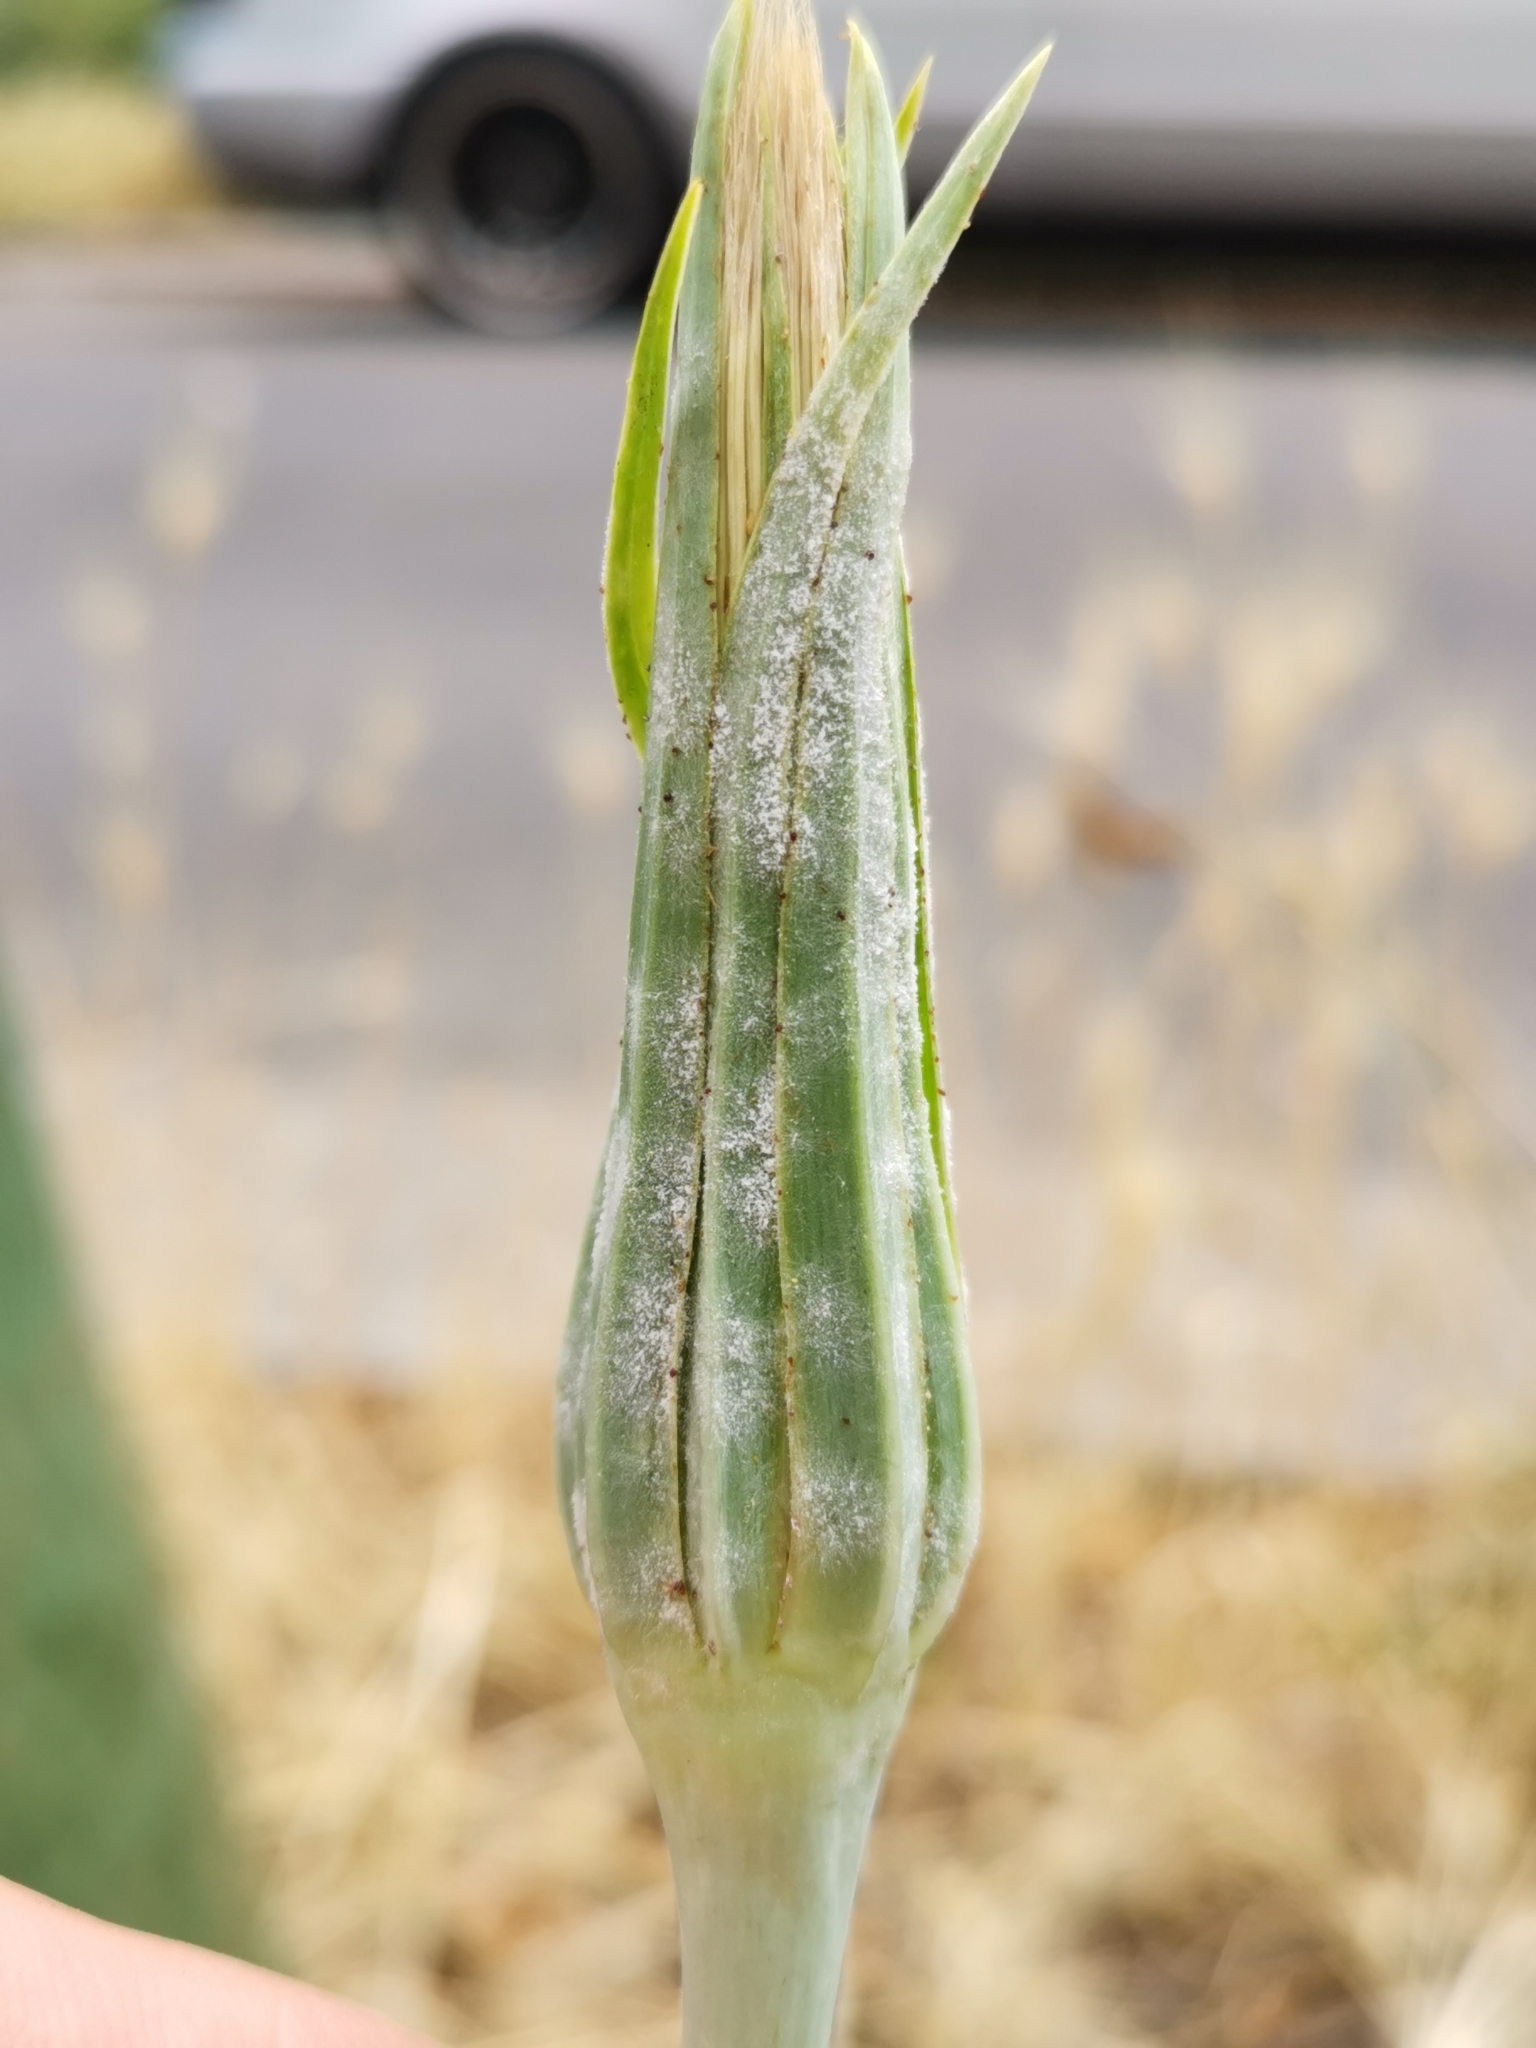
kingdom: Fungi
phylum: Ascomycota
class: Leotiomycetes
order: Helotiales
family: Erysiphaceae
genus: Golovinomyces
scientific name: Golovinomyces cichoracearum
